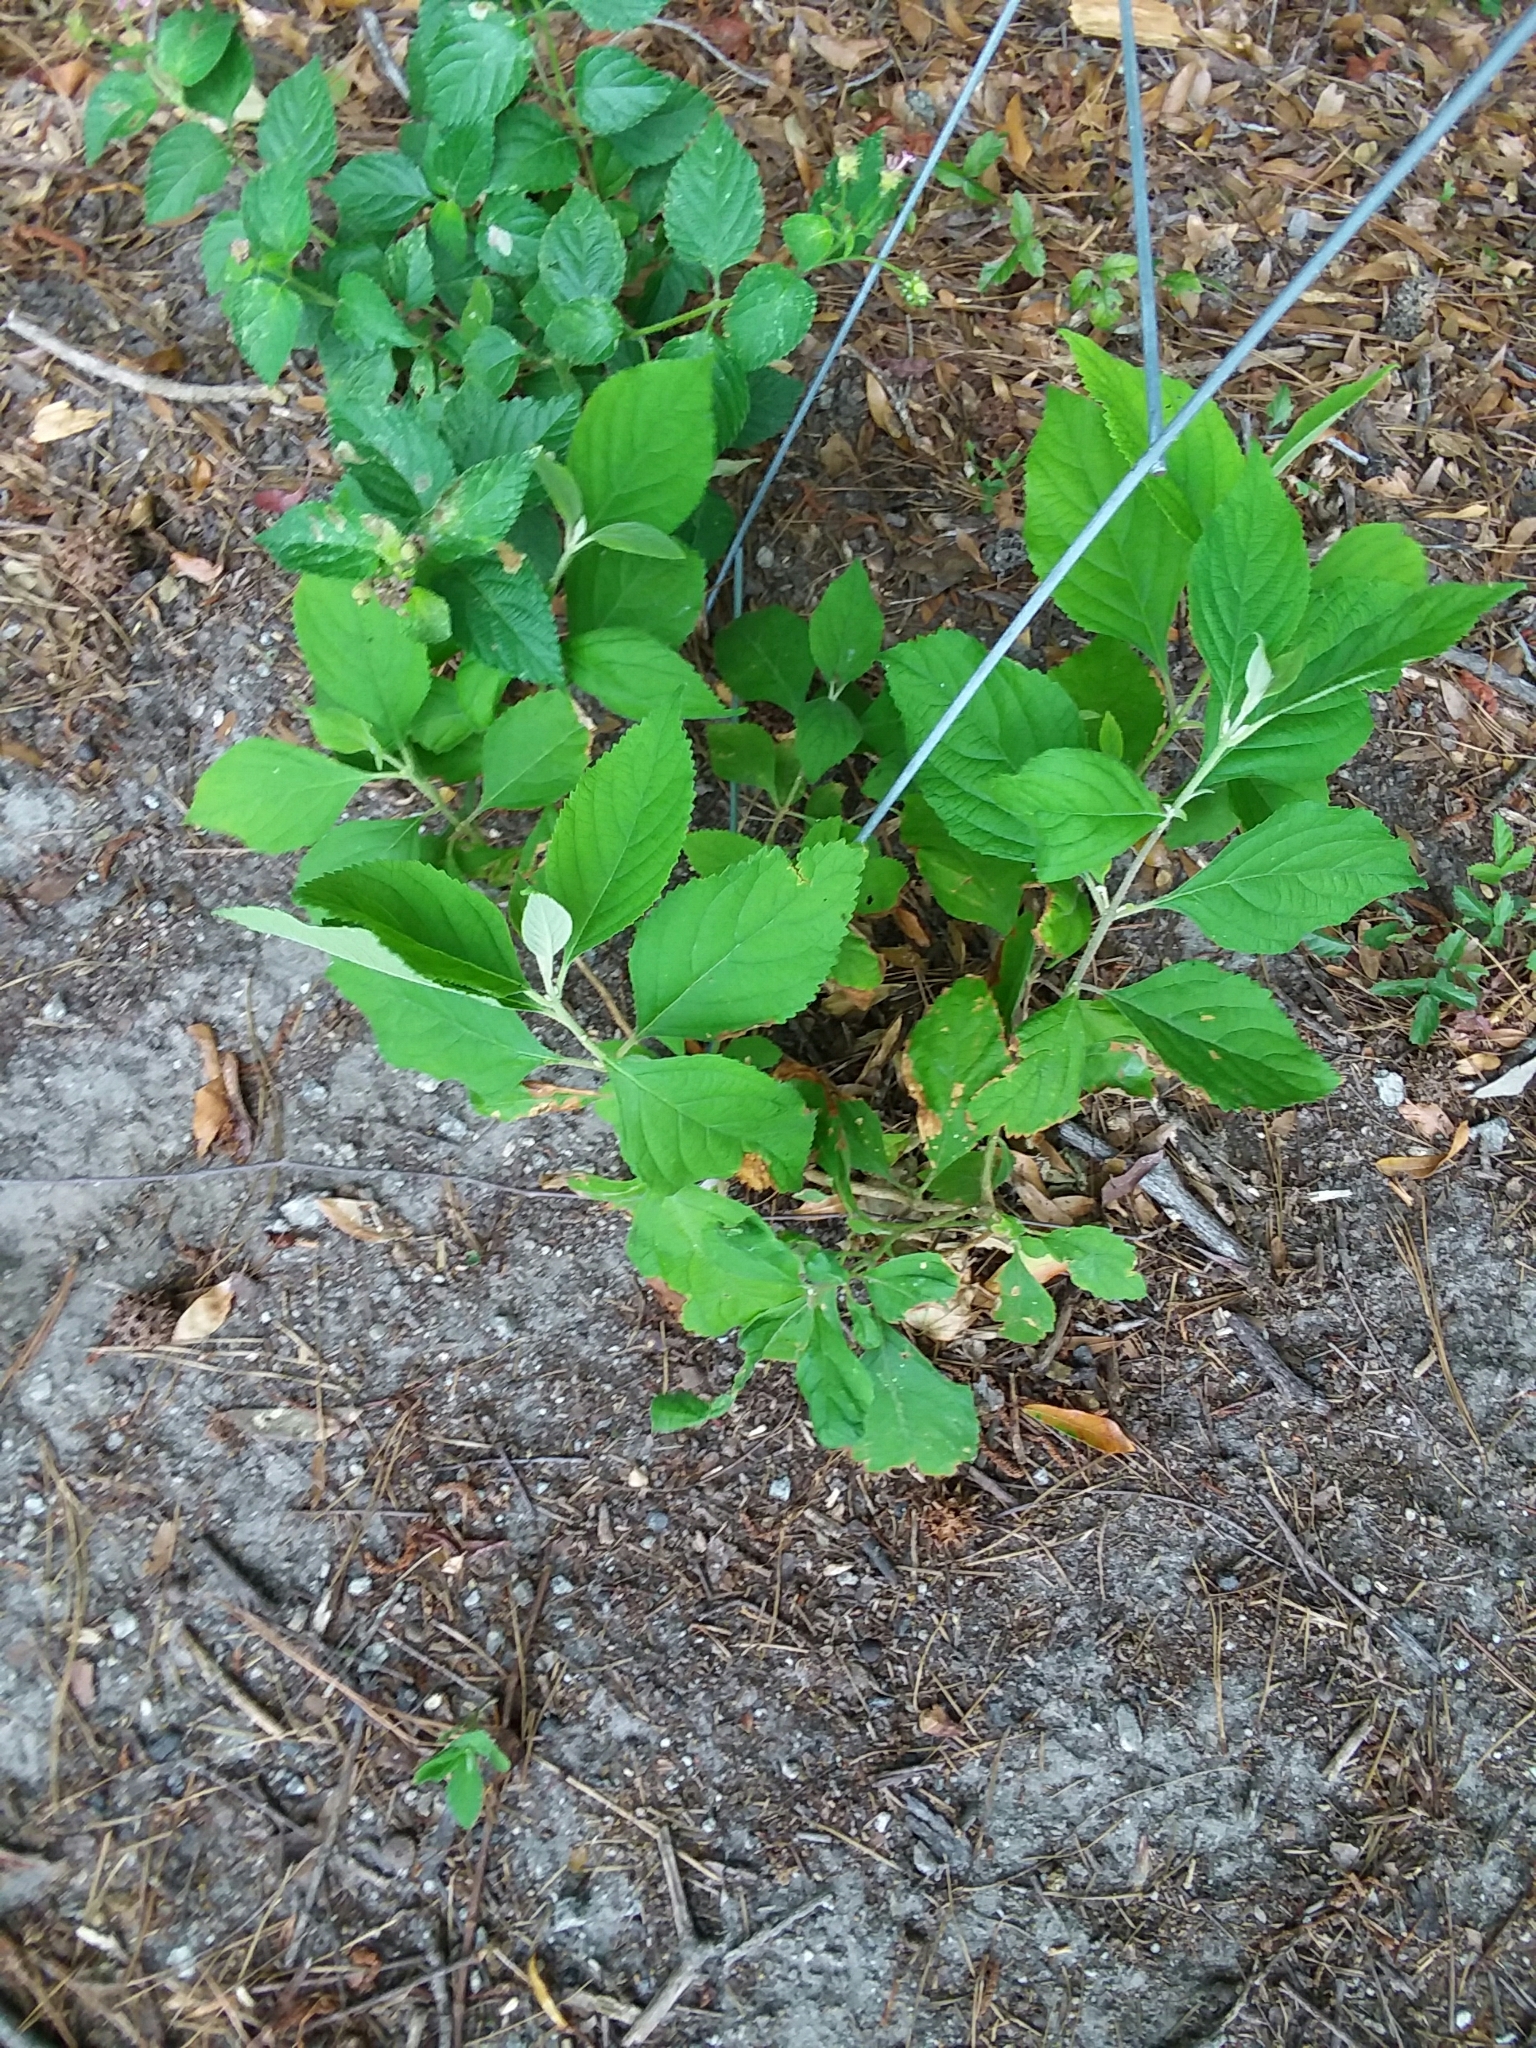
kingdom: Plantae
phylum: Tracheophyta
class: Magnoliopsida
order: Lamiales
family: Lamiaceae
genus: Callicarpa
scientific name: Callicarpa americana
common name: American beautyberry
